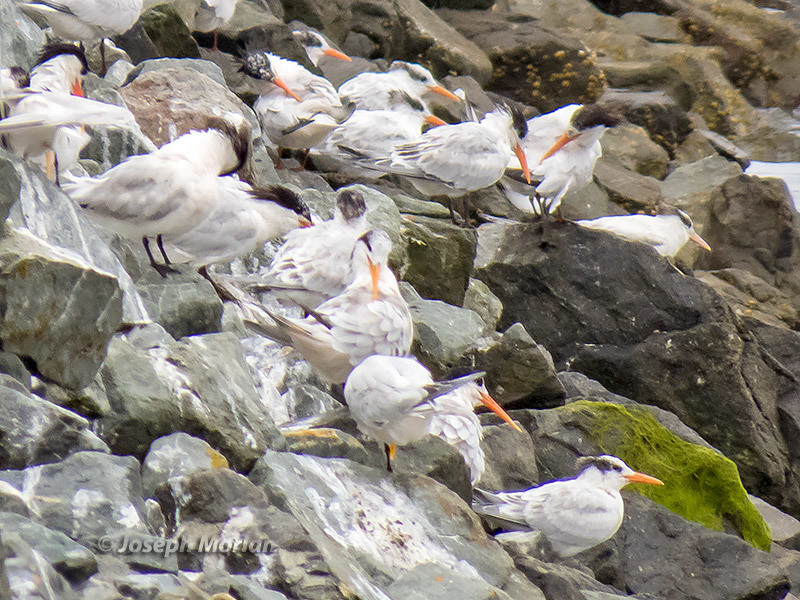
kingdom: Animalia
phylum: Chordata
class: Aves
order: Charadriiformes
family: Laridae
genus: Thalasseus
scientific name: Thalasseus elegans
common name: Elegant tern
